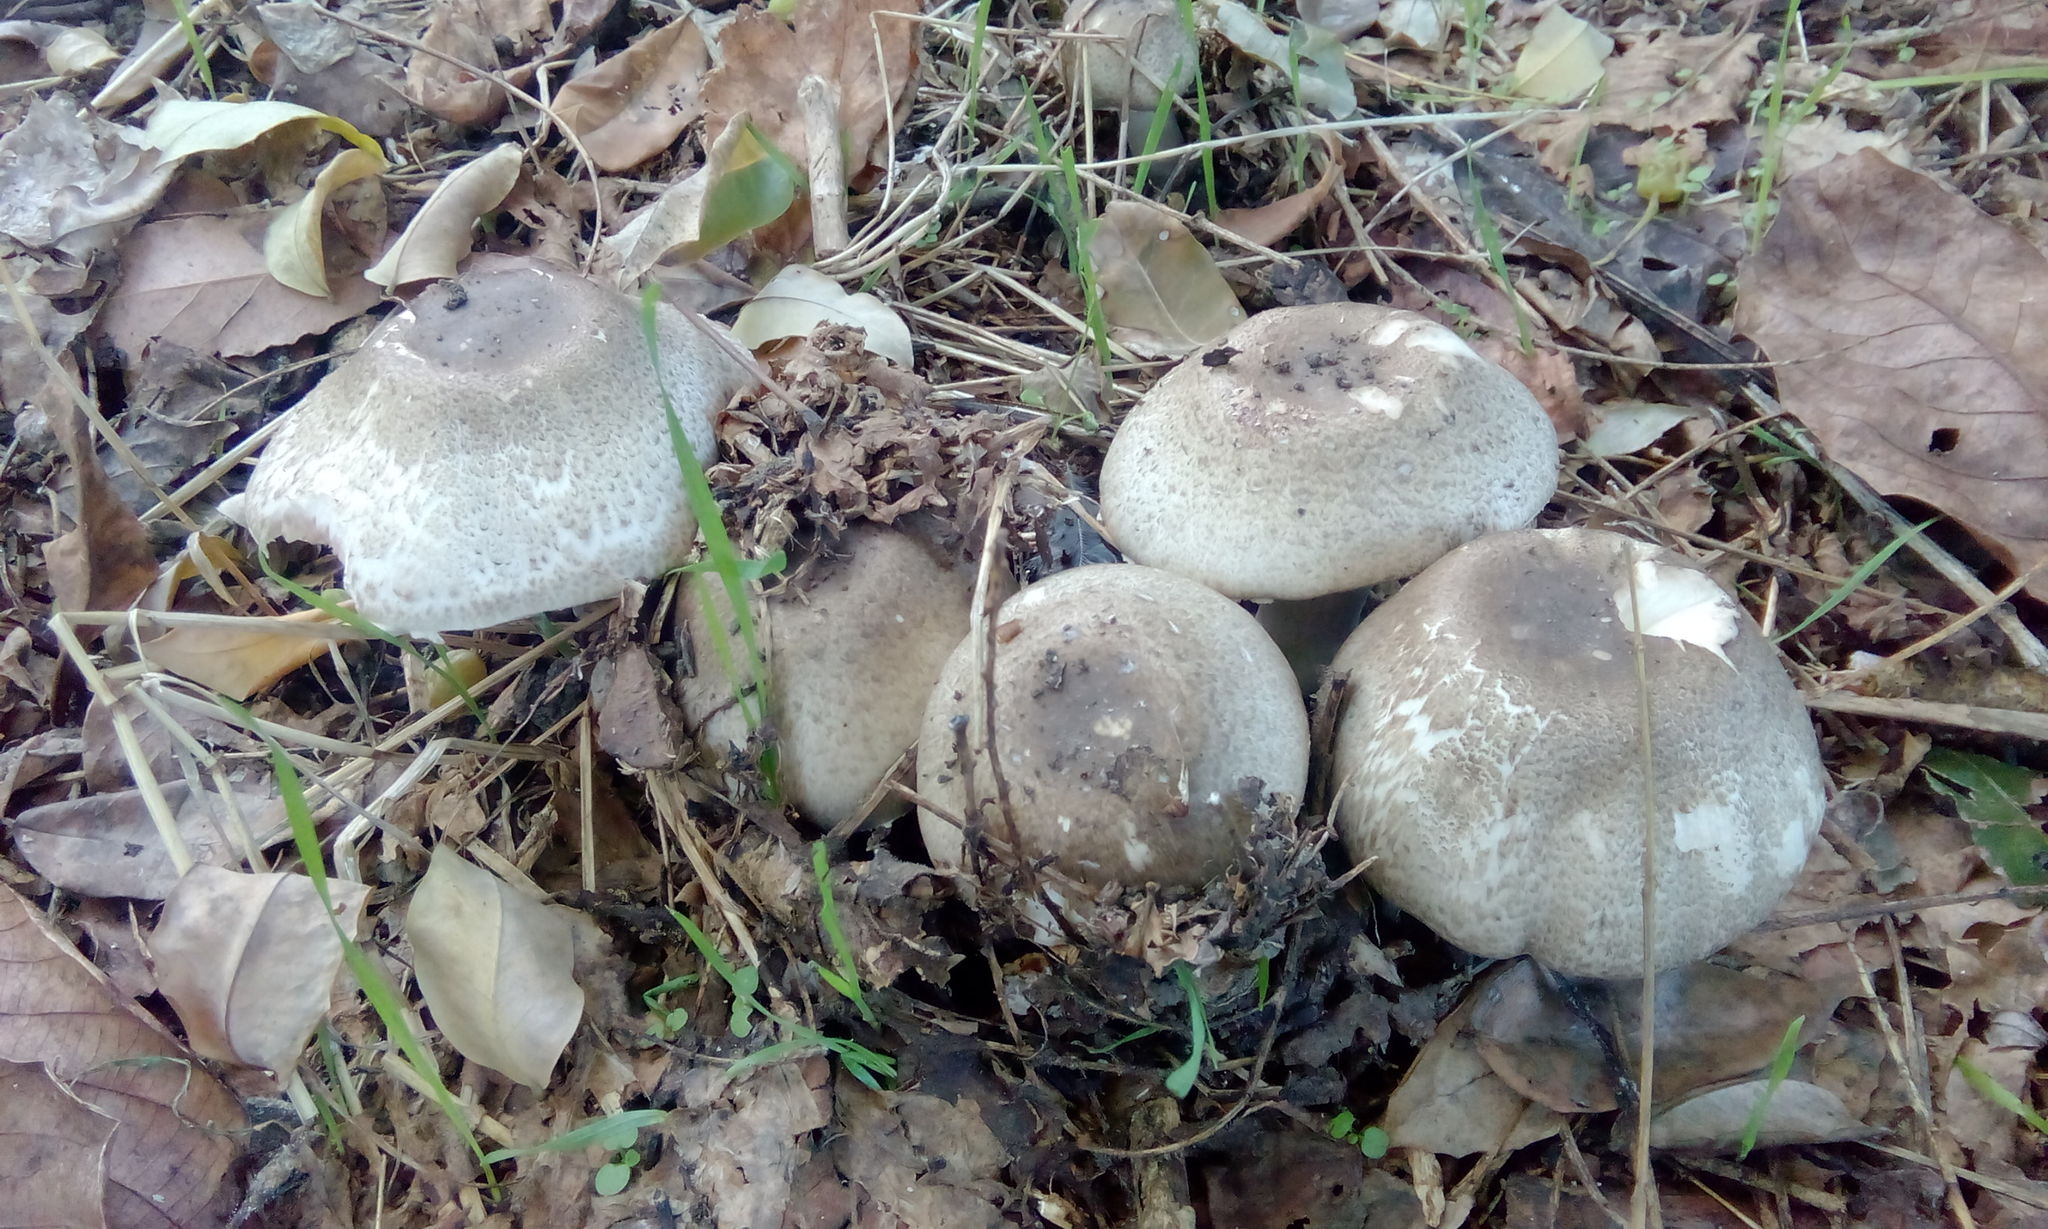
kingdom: Fungi
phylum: Basidiomycota
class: Agaricomycetes
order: Agaricales
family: Agaricaceae
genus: Agaricus
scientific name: Agaricus moelleri
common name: Inky mushroom
